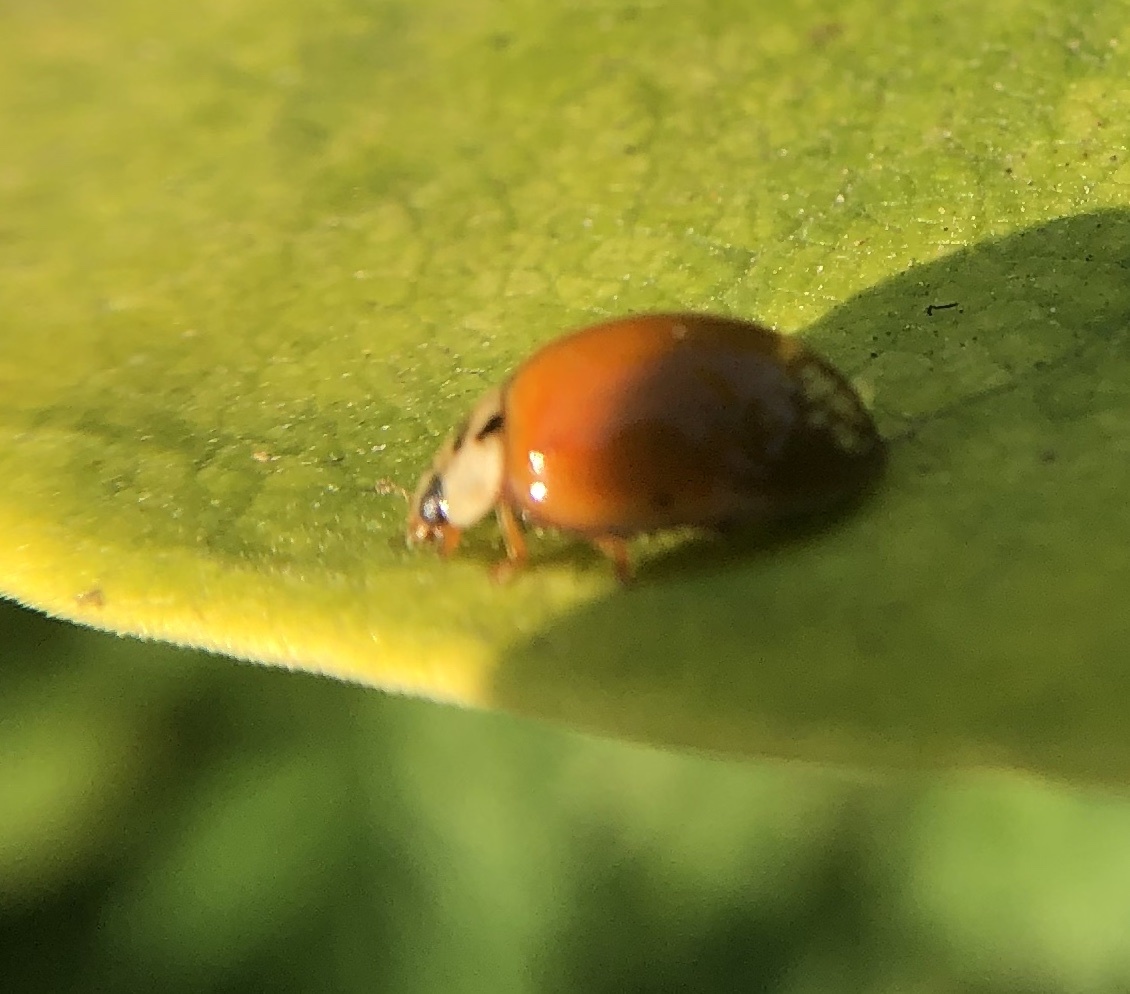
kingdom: Animalia
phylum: Arthropoda
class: Insecta
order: Coleoptera
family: Coccinellidae
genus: Harmonia
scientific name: Harmonia axyridis
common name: Harlequin ladybird
